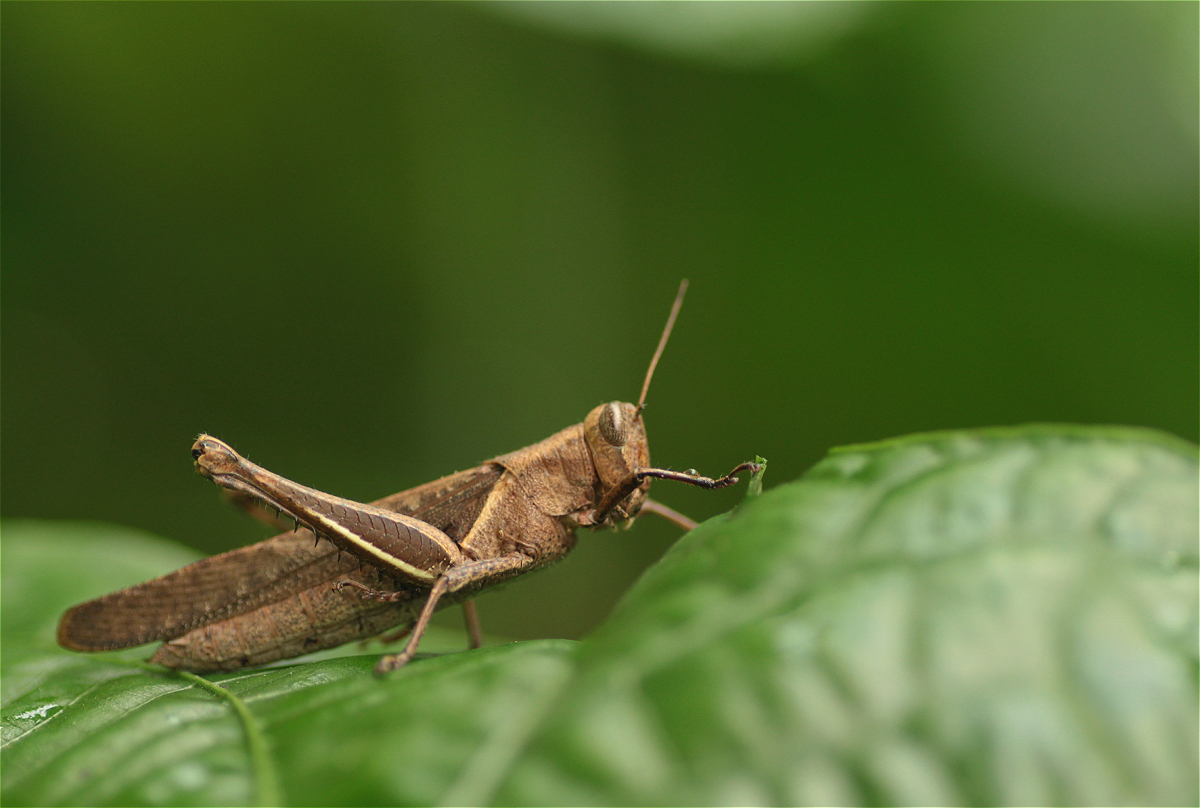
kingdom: Animalia
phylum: Arthropoda
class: Insecta
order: Orthoptera
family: Acrididae
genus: Abracris
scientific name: Abracris flavolineata
